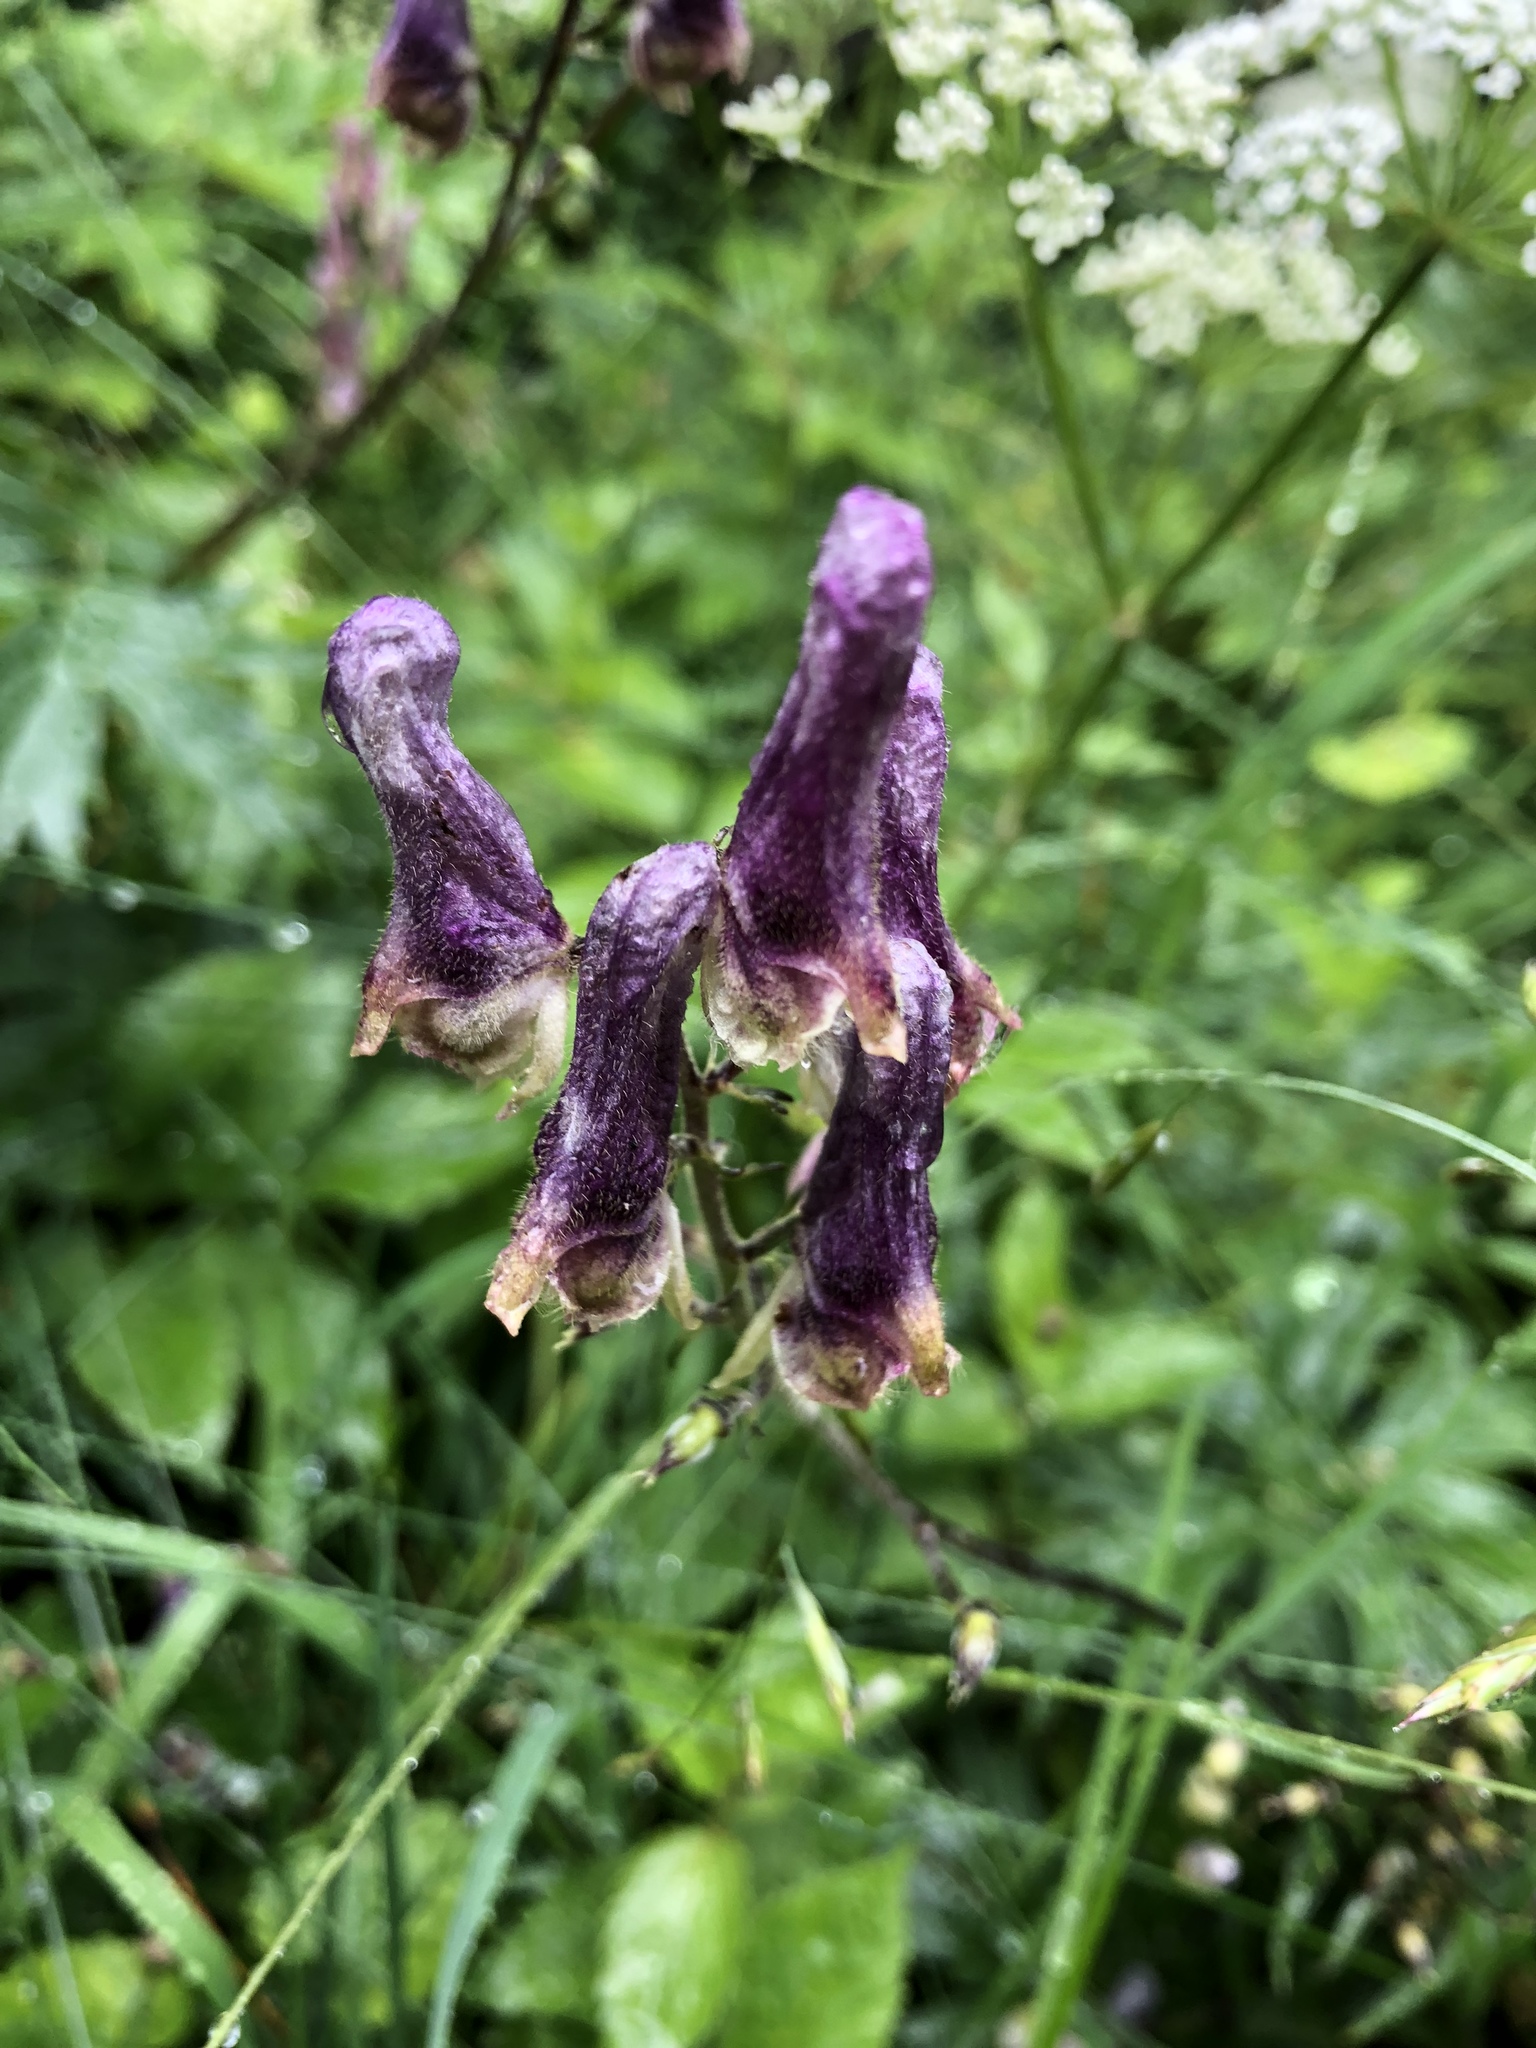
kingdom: Plantae
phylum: Tracheophyta
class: Magnoliopsida
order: Ranunculales
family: Ranunculaceae
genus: Aconitum
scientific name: Aconitum lycoctonum
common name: Wolf's-bane
